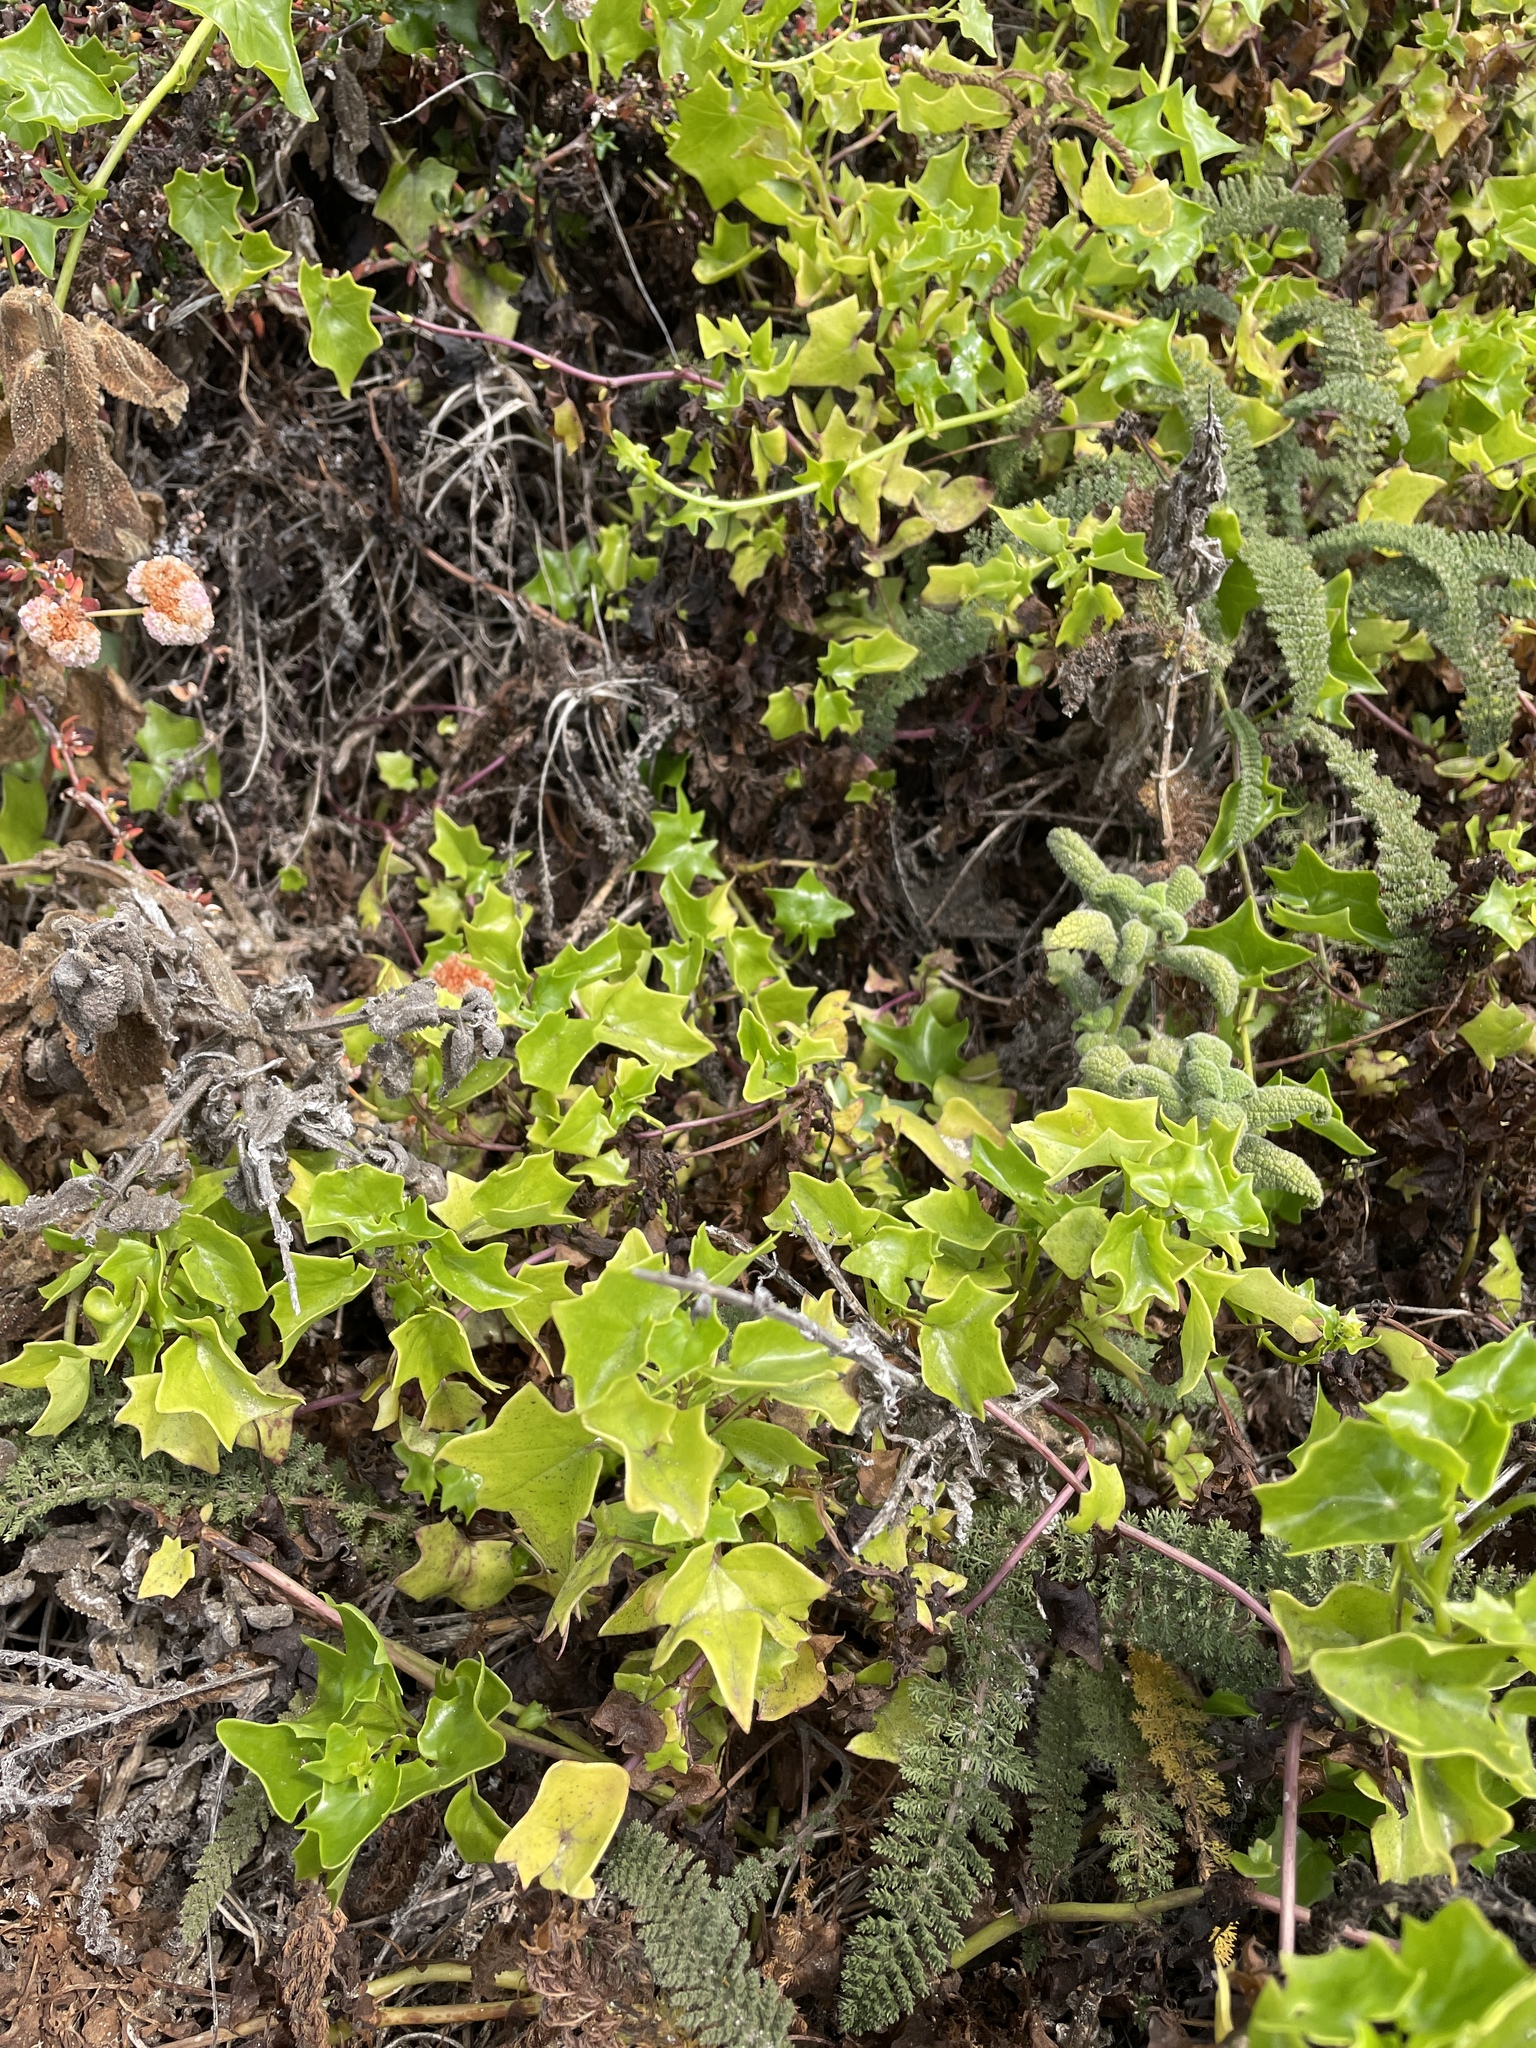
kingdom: Plantae
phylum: Tracheophyta
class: Magnoliopsida
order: Asterales
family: Asteraceae
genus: Delairea
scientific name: Delairea odorata
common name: Cape-ivy
